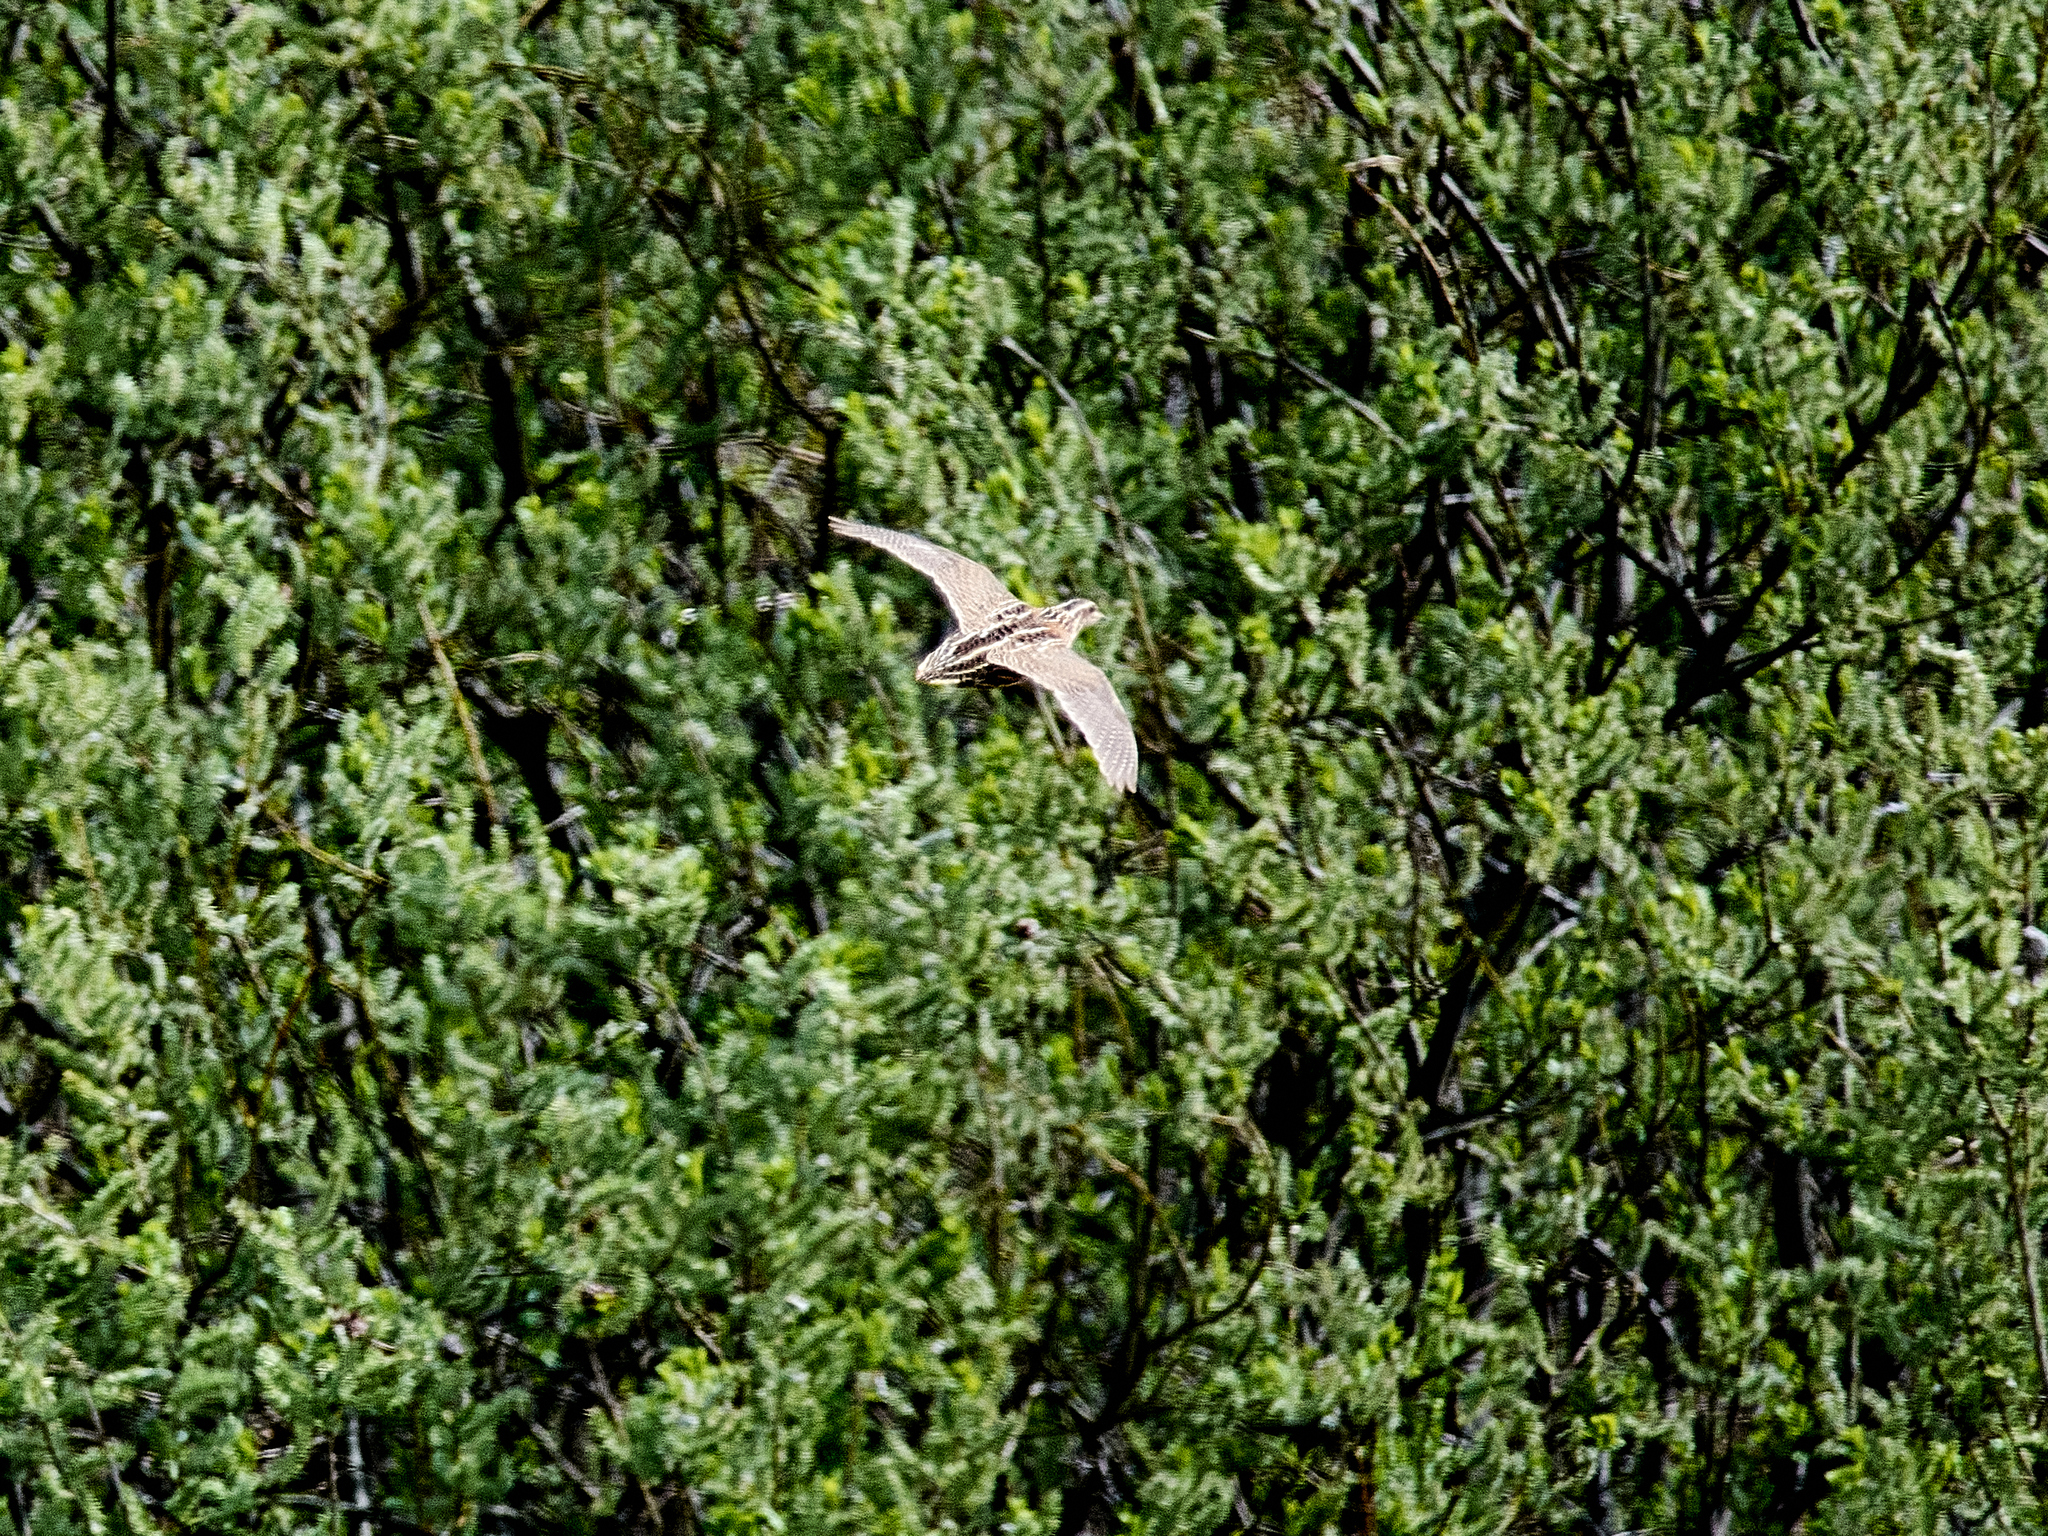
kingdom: Animalia
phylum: Chordata
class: Aves
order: Galliformes
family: Phasianidae
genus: Coturnix
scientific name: Coturnix coturnix
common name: Common quail
